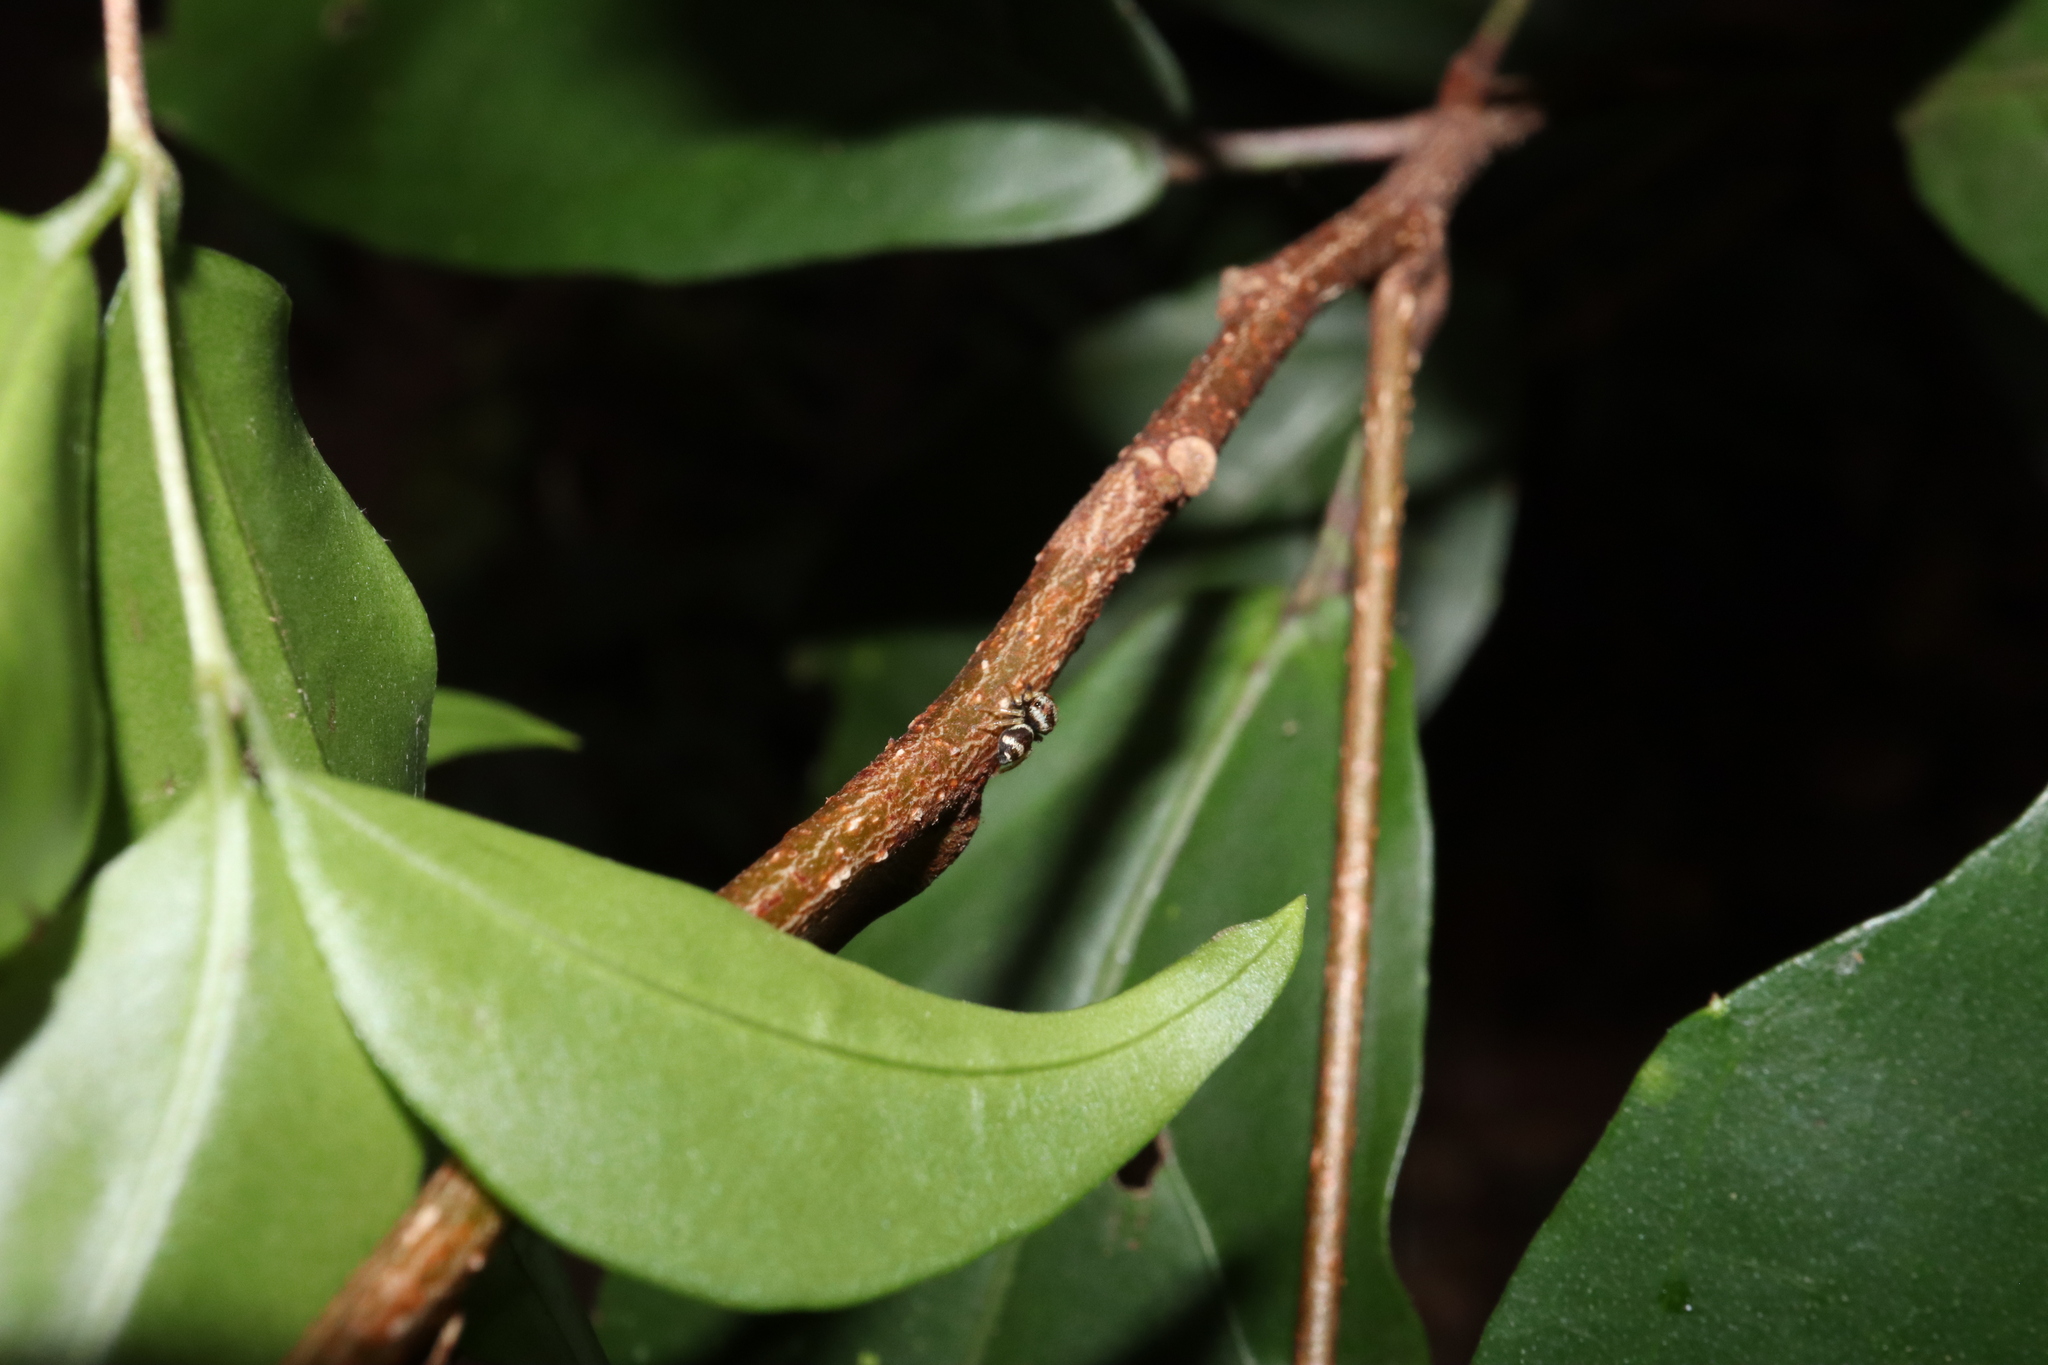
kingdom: Animalia
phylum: Arthropoda
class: Arachnida
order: Araneae
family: Salticidae
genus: Euryattus
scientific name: Euryattus bleekeri
